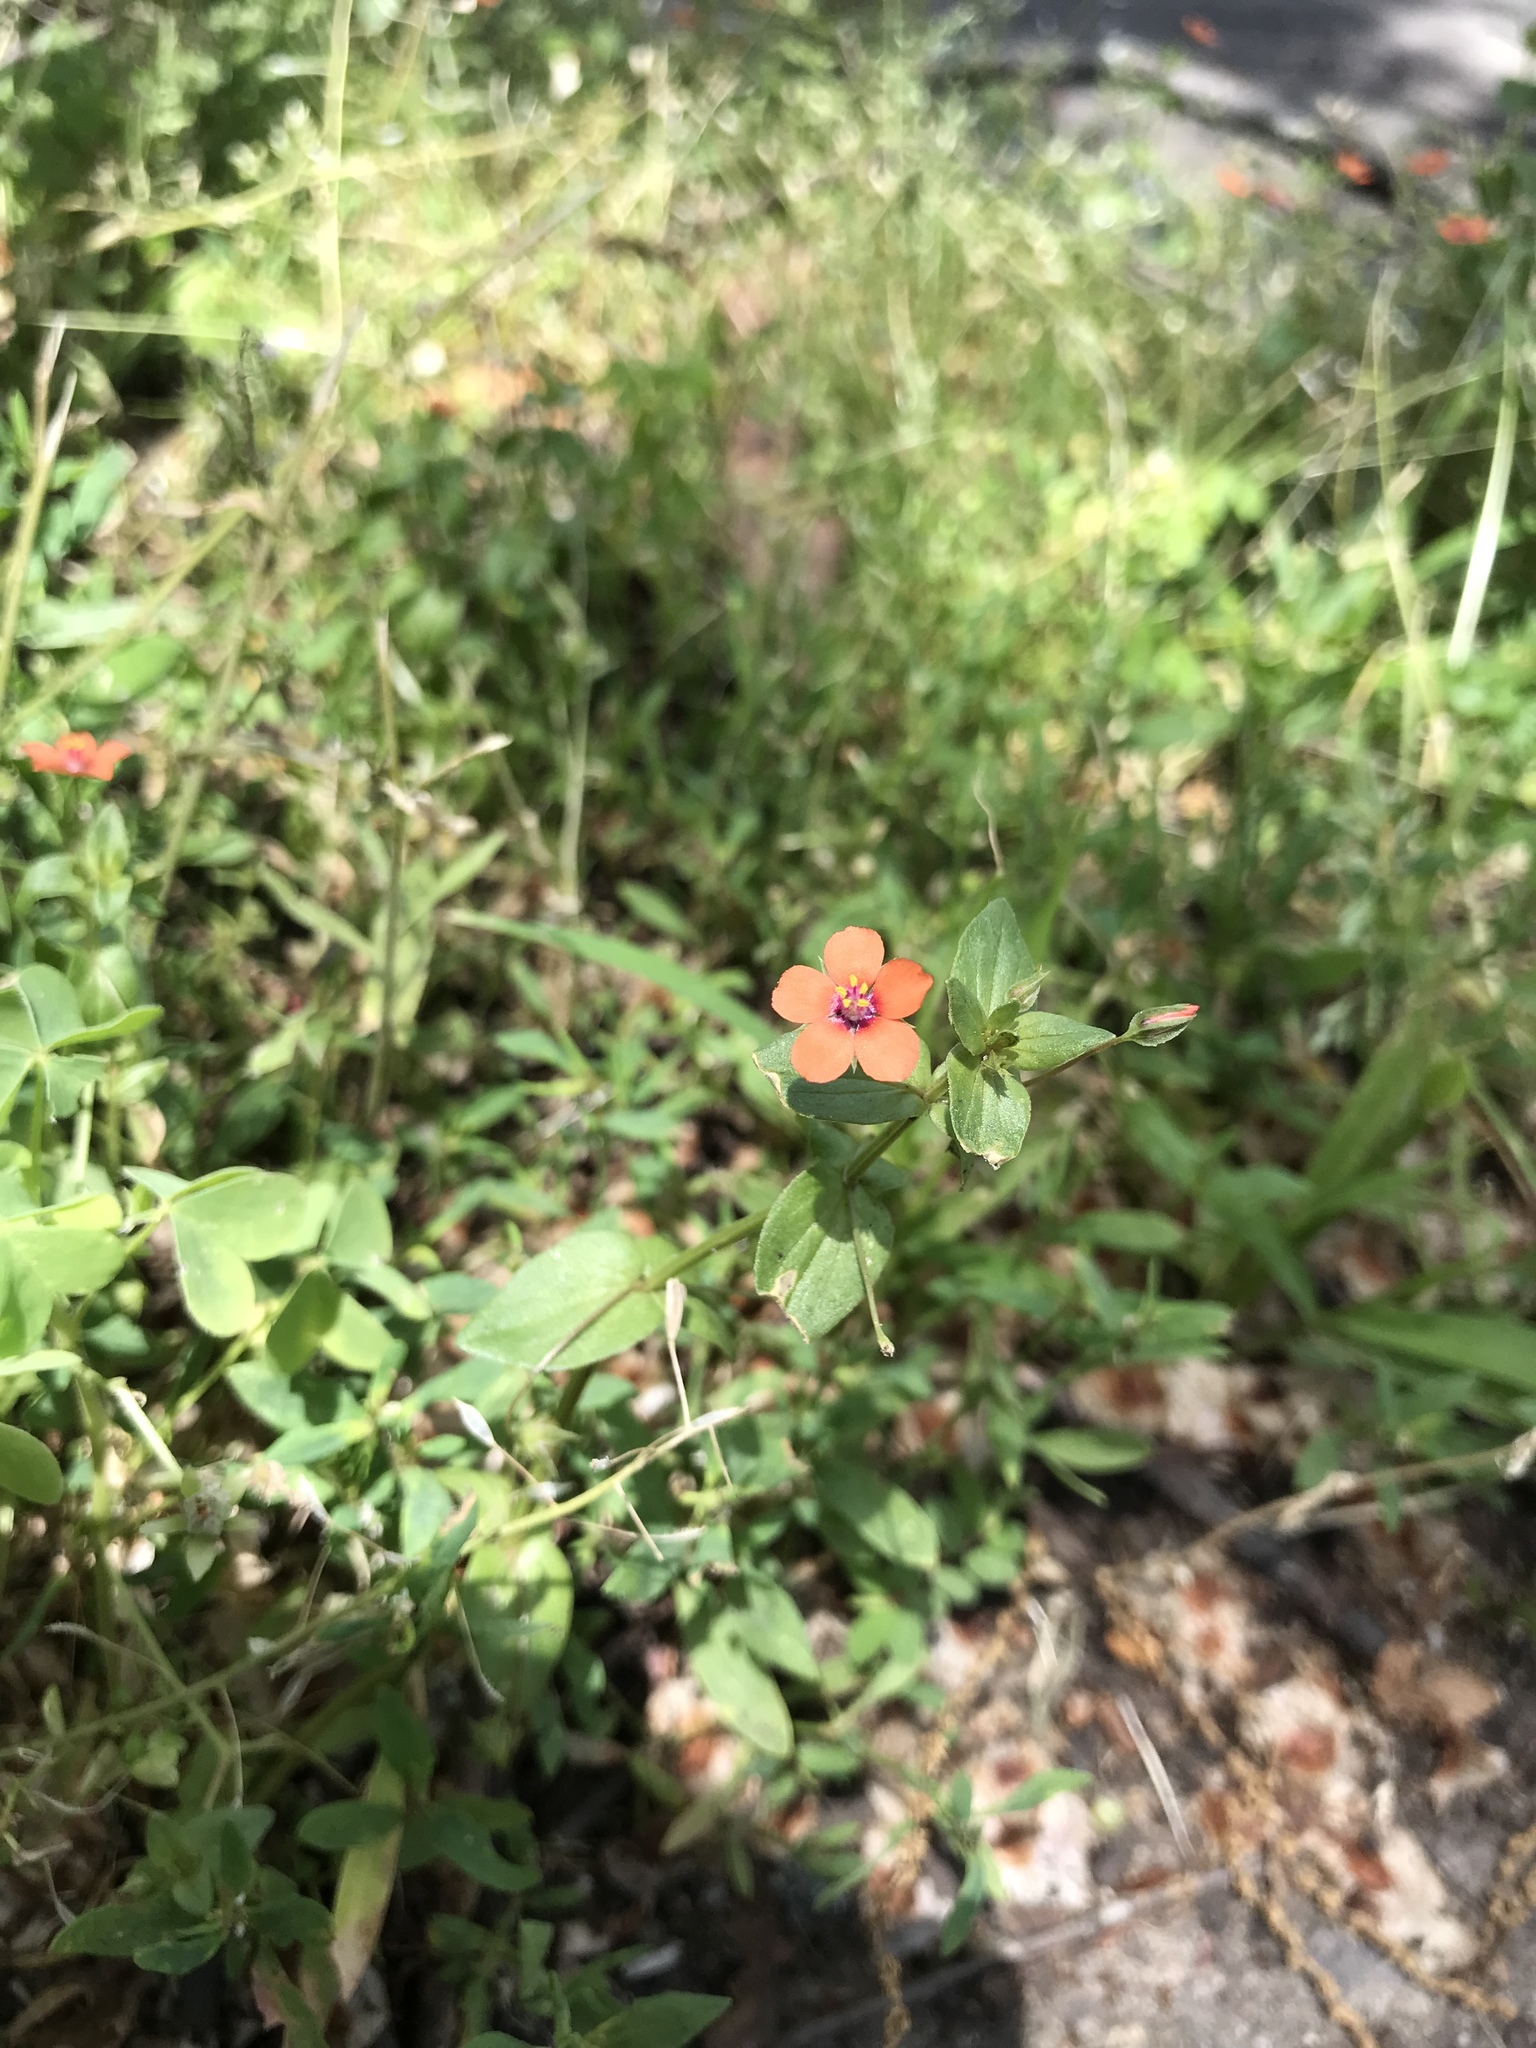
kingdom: Plantae
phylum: Tracheophyta
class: Magnoliopsida
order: Ericales
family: Primulaceae
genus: Lysimachia
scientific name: Lysimachia arvensis
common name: Scarlet pimpernel
